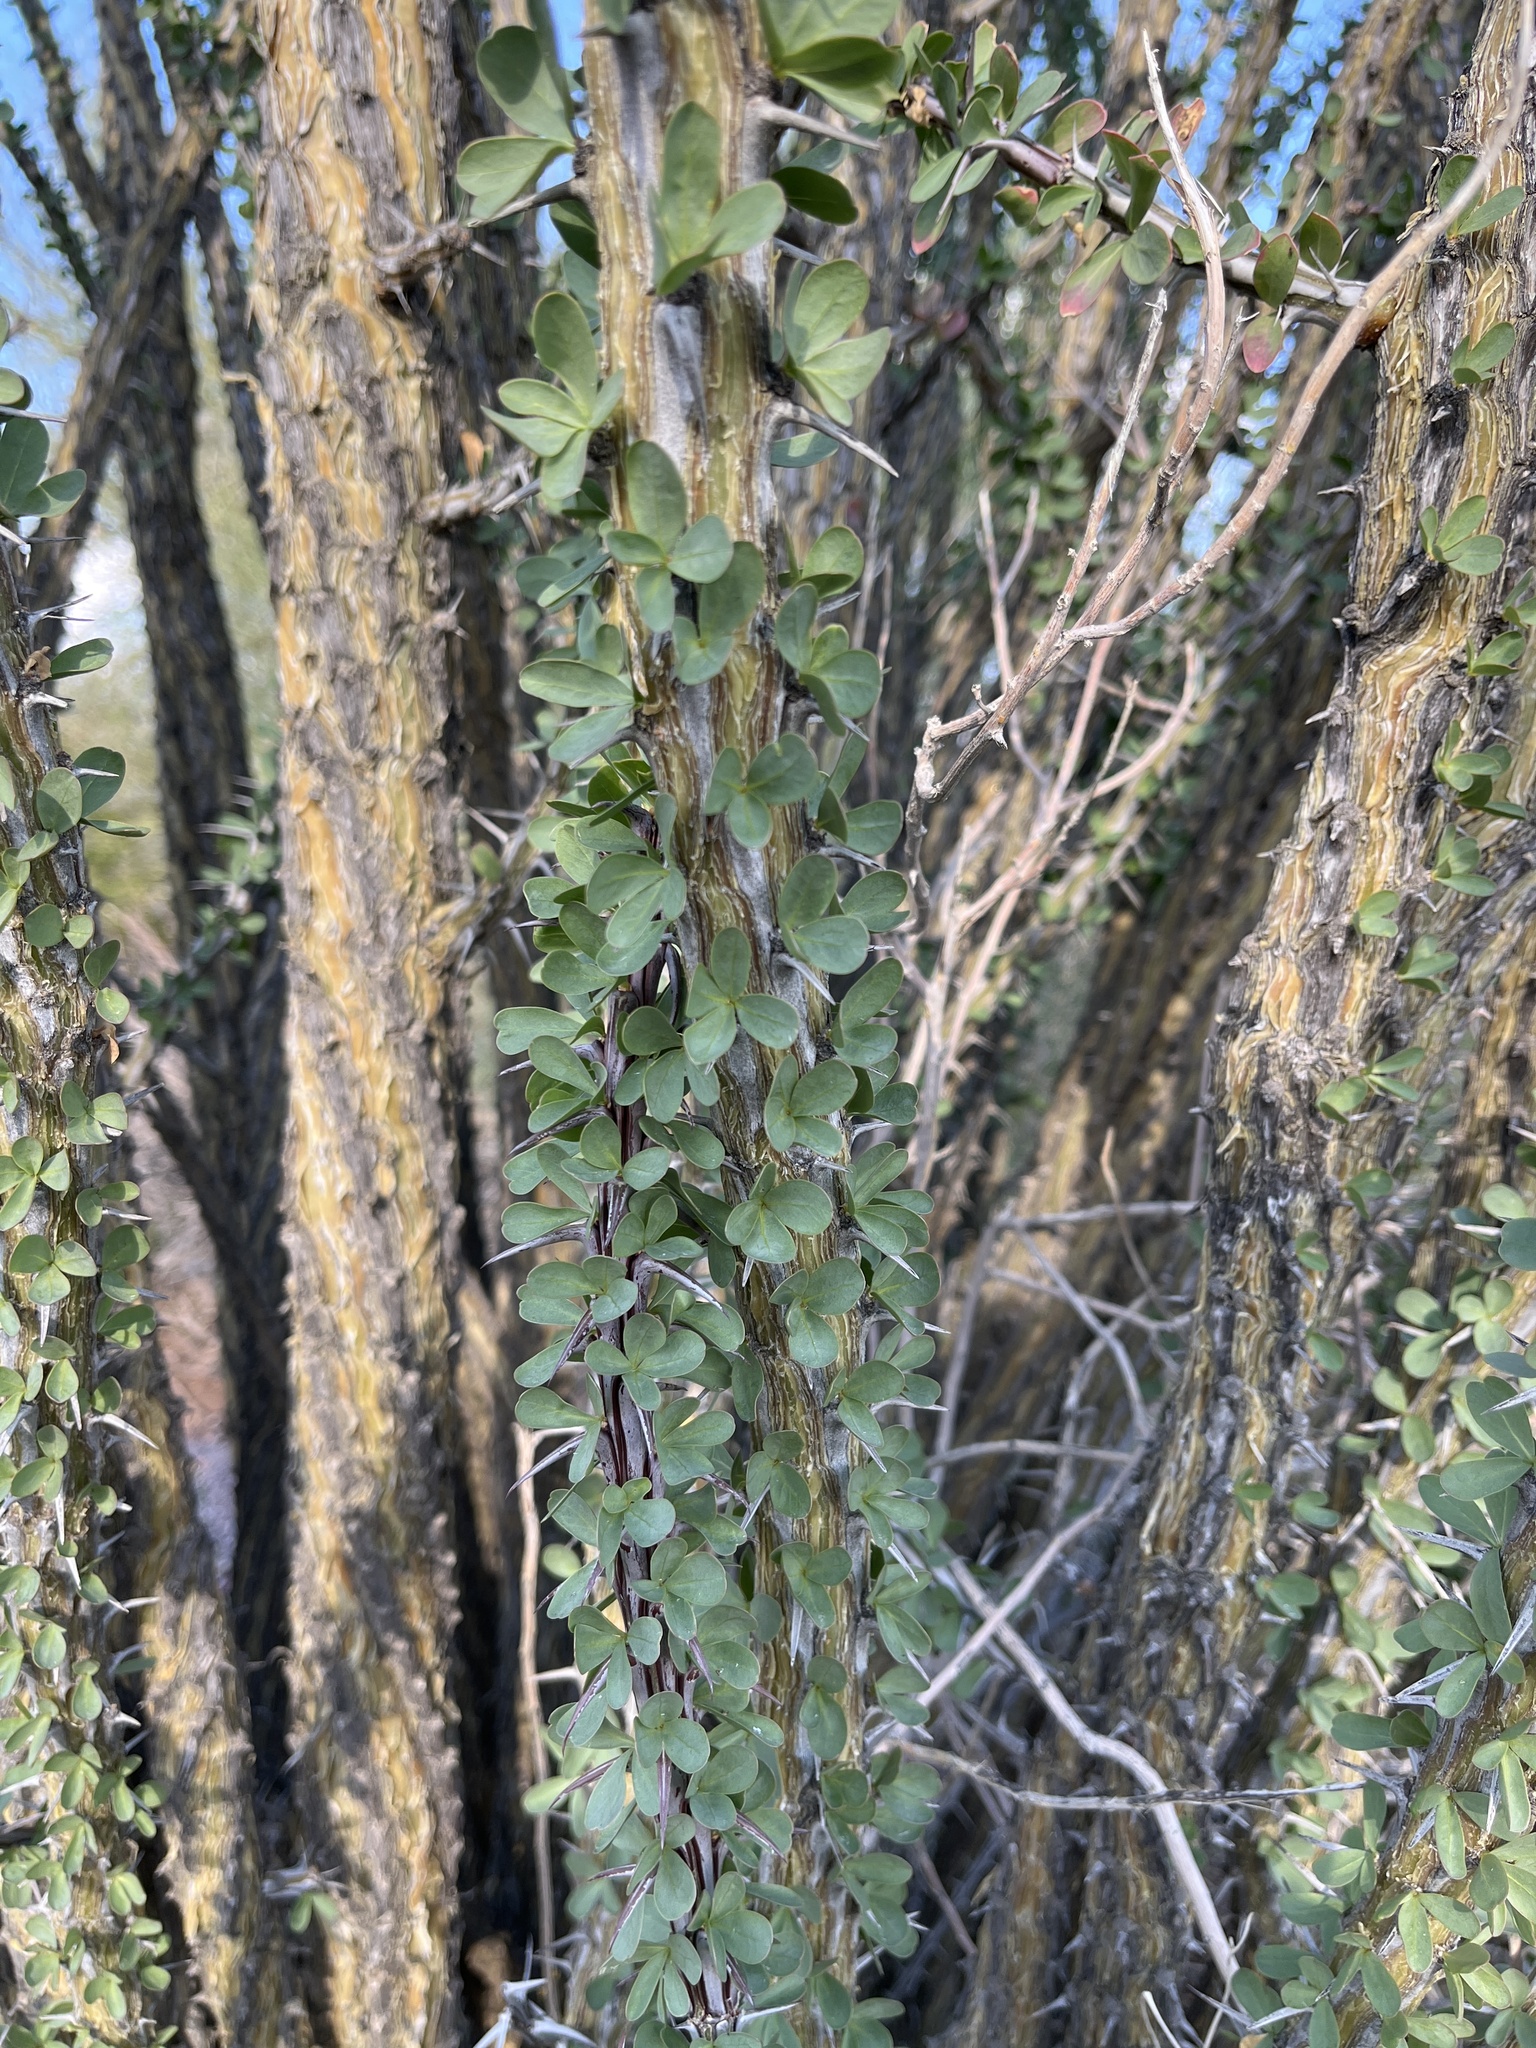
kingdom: Plantae
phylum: Tracheophyta
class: Magnoliopsida
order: Ericales
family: Fouquieriaceae
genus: Fouquieria
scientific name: Fouquieria splendens
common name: Vine-cactus
